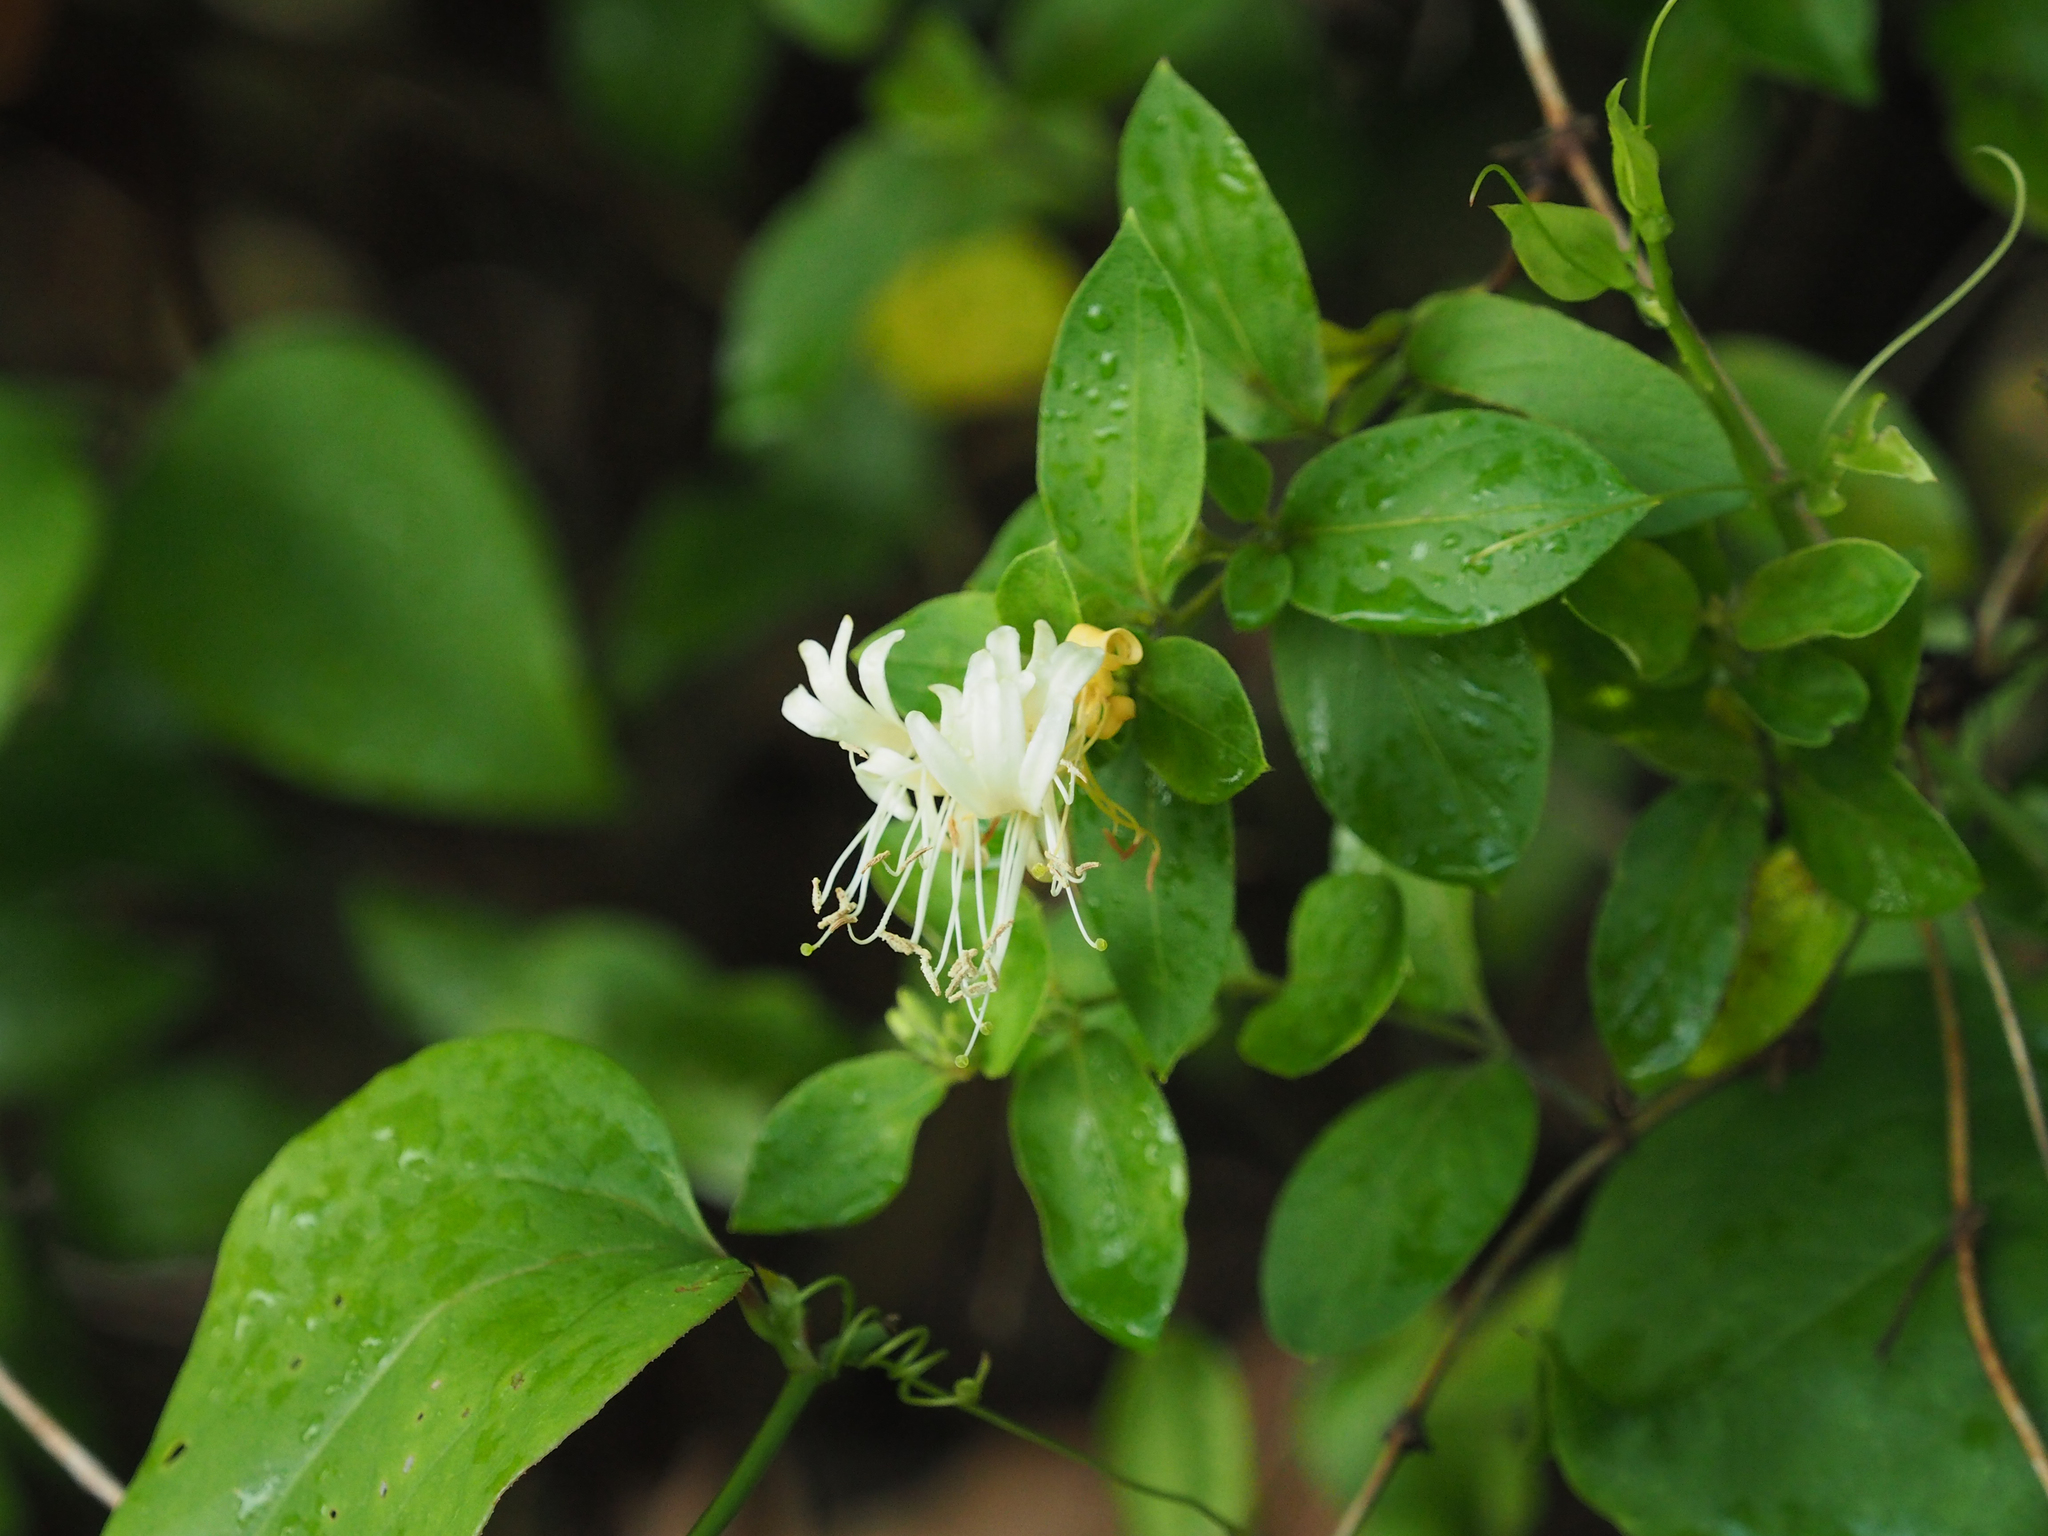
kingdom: Plantae
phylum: Tracheophyta
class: Magnoliopsida
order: Dipsacales
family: Caprifoliaceae
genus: Lonicera
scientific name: Lonicera japonica
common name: Japanese honeysuckle
